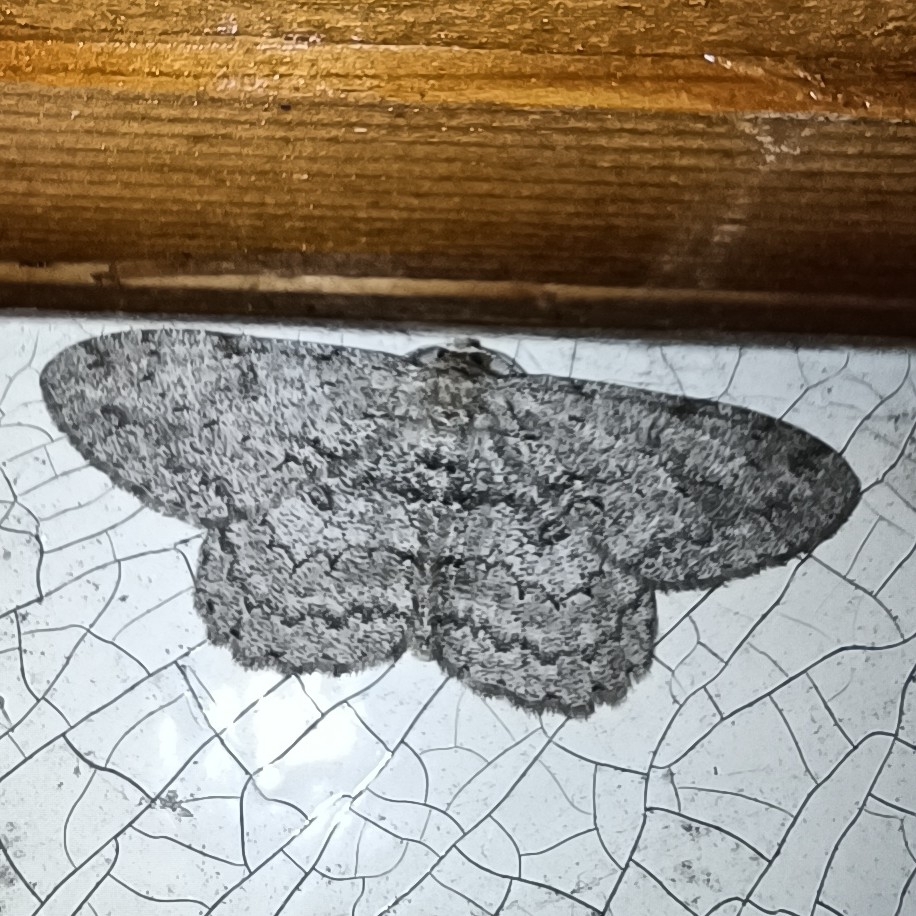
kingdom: Animalia
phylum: Arthropoda
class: Insecta
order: Lepidoptera
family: Geometridae
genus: Hypomecis
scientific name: Hypomecis punctinalis
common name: Pale oak beauty
